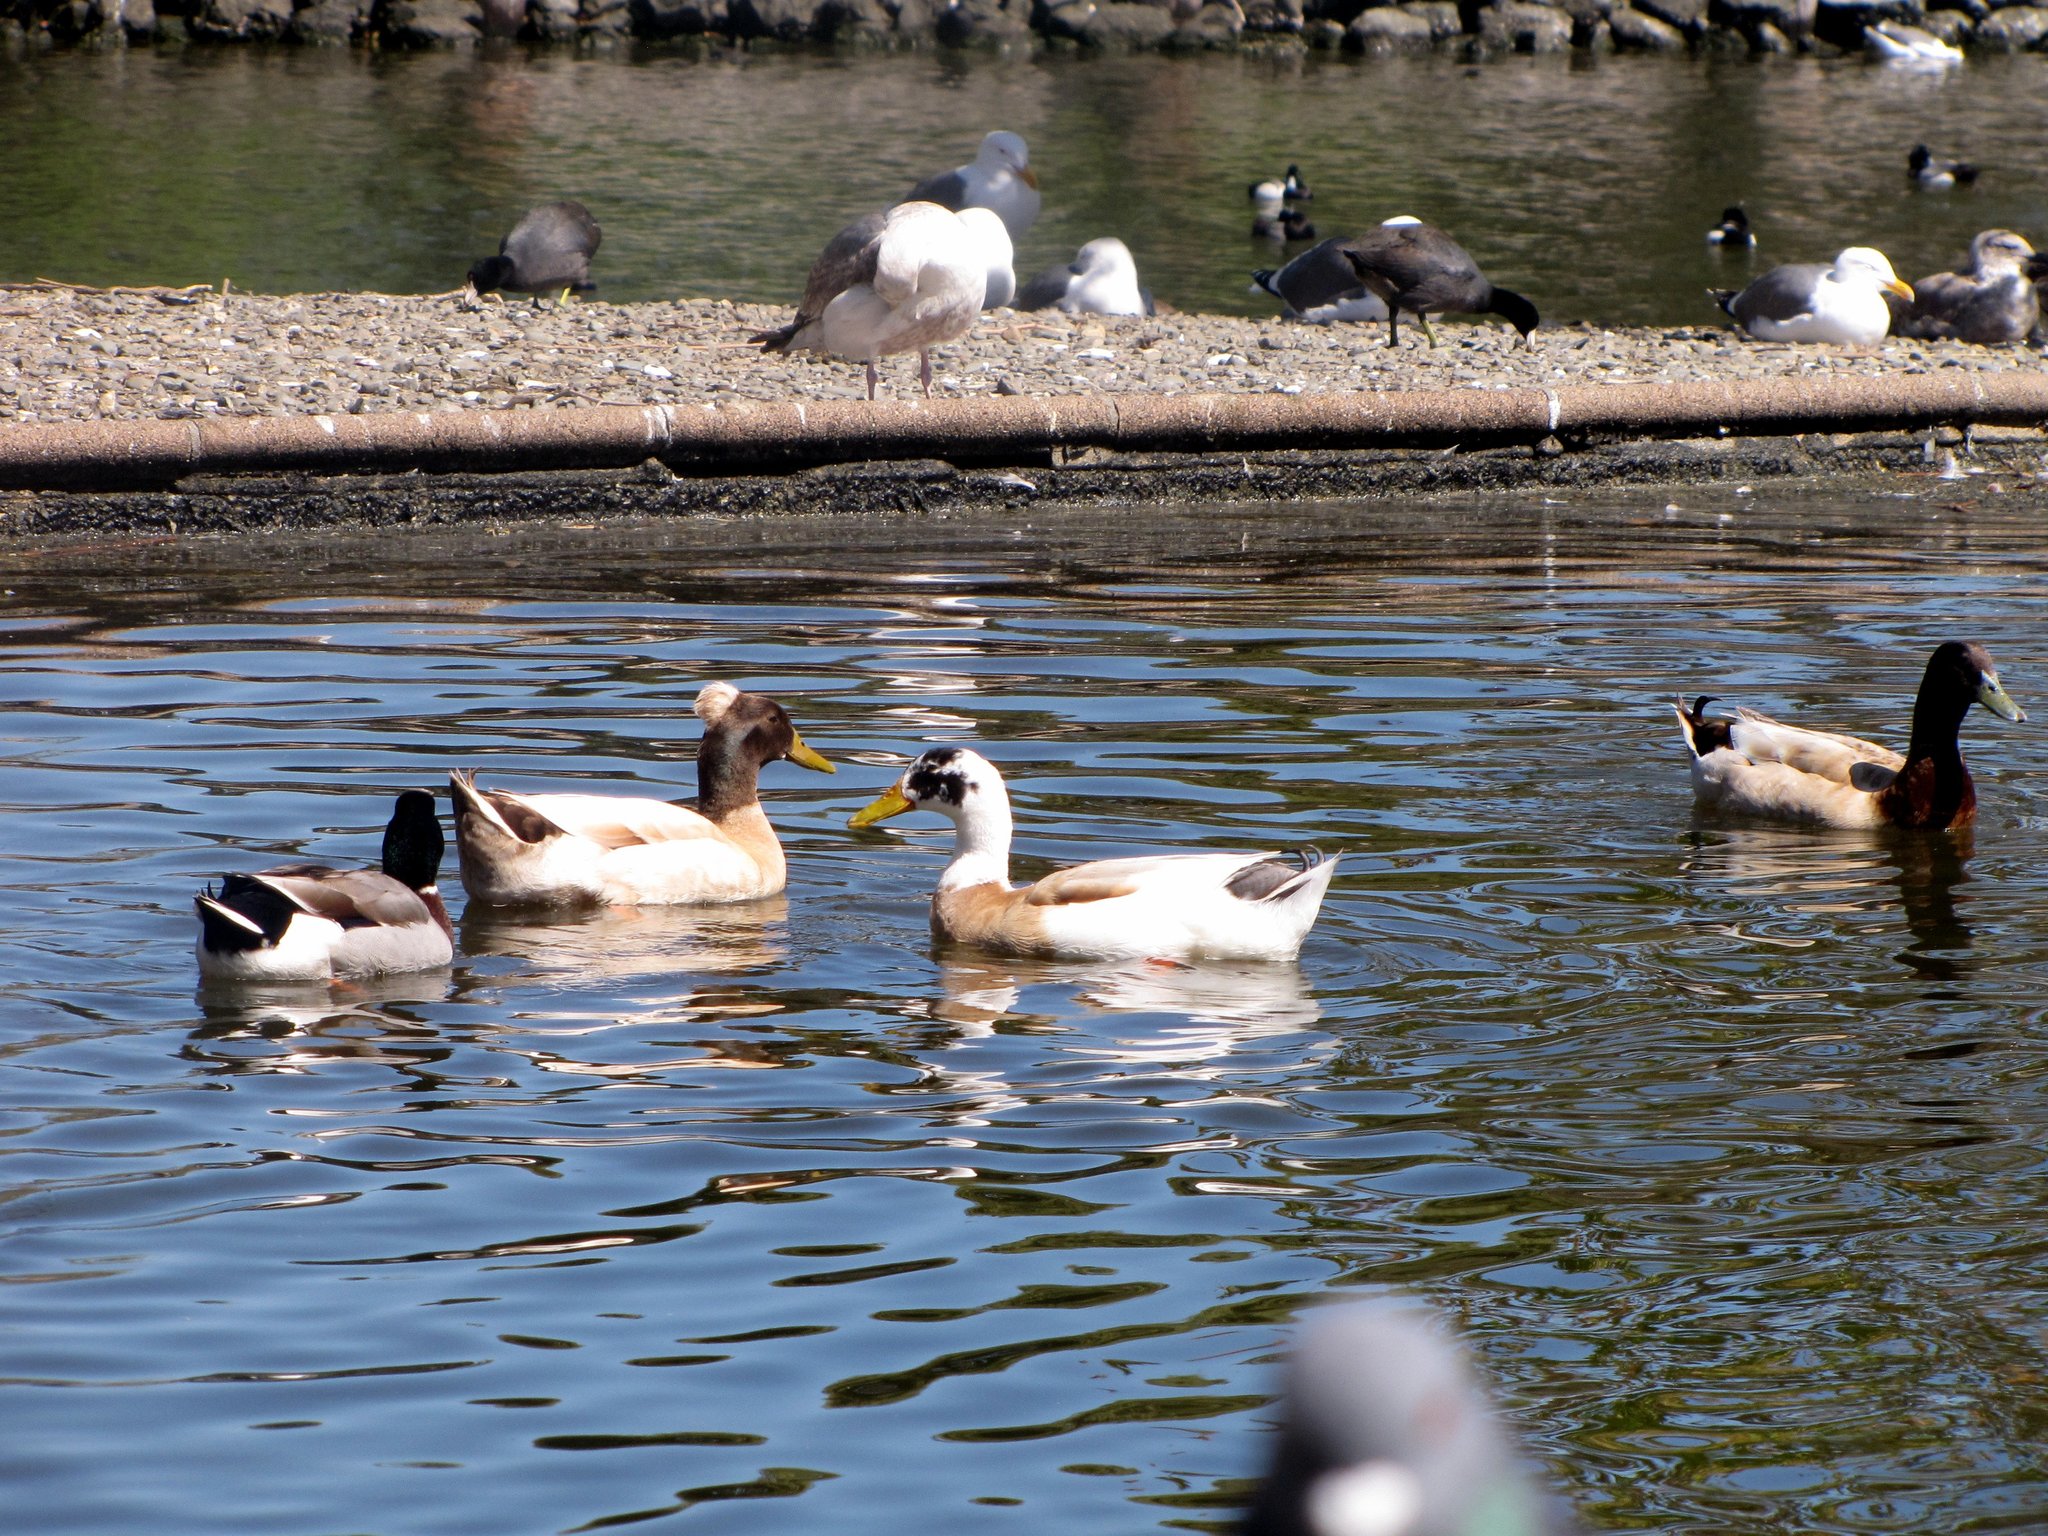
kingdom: Animalia
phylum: Chordata
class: Aves
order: Anseriformes
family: Anatidae
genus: Anas
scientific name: Anas platyrhynchos
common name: Mallard
